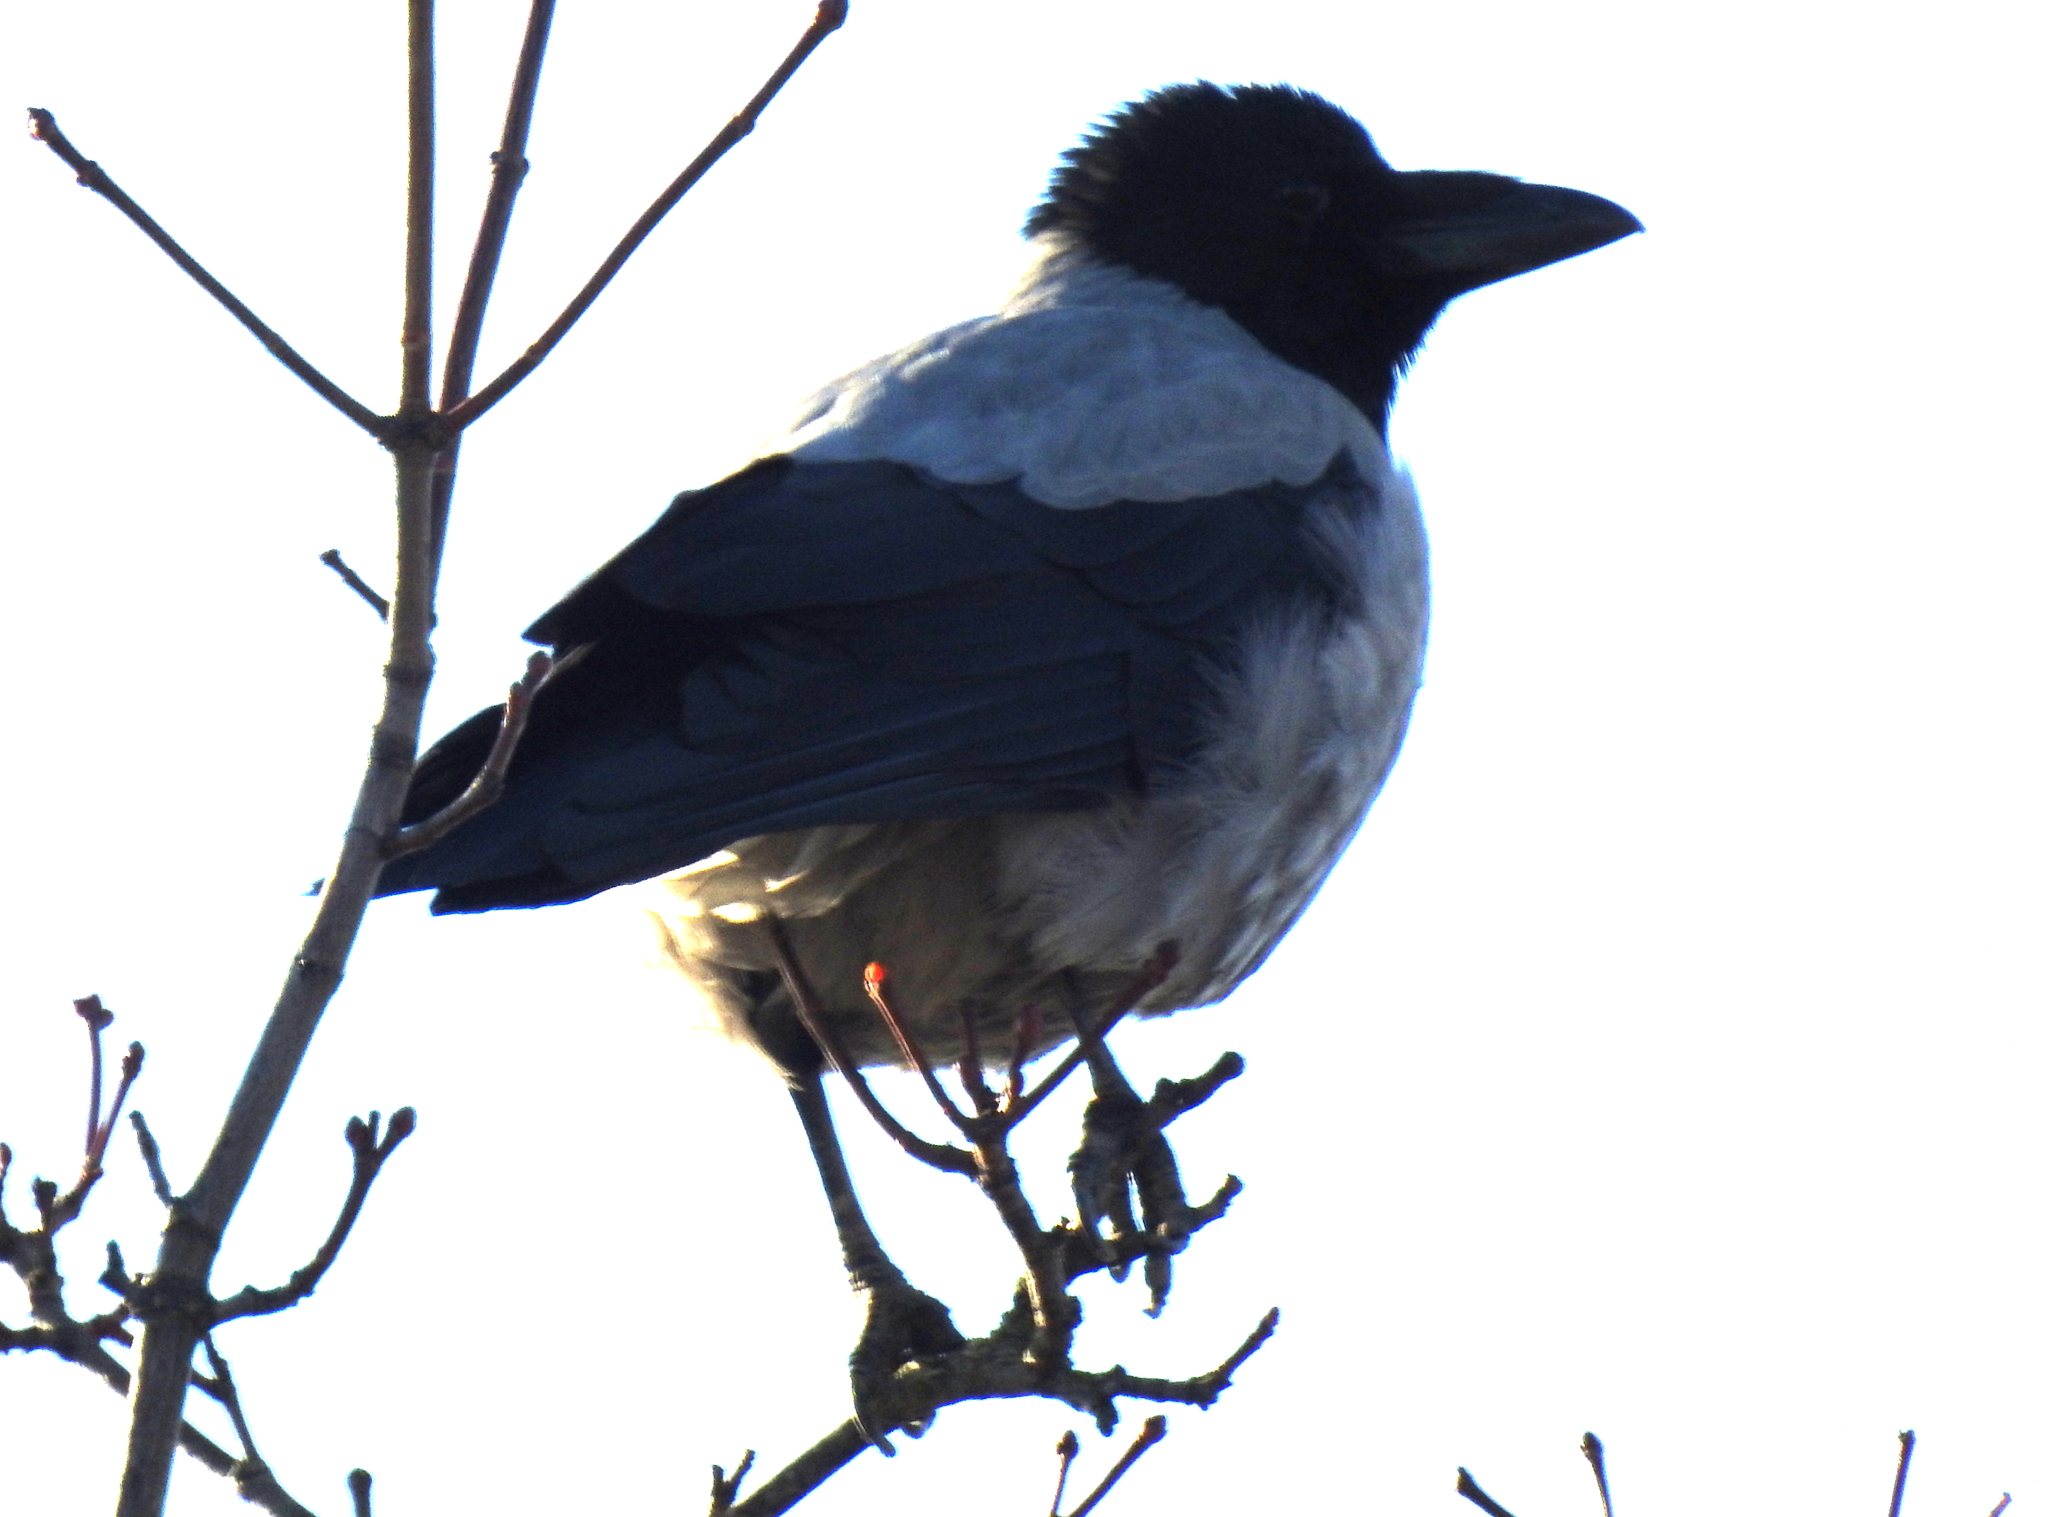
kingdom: Animalia
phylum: Chordata
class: Aves
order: Passeriformes
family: Corvidae
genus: Corvus
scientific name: Corvus cornix
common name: Hooded crow
